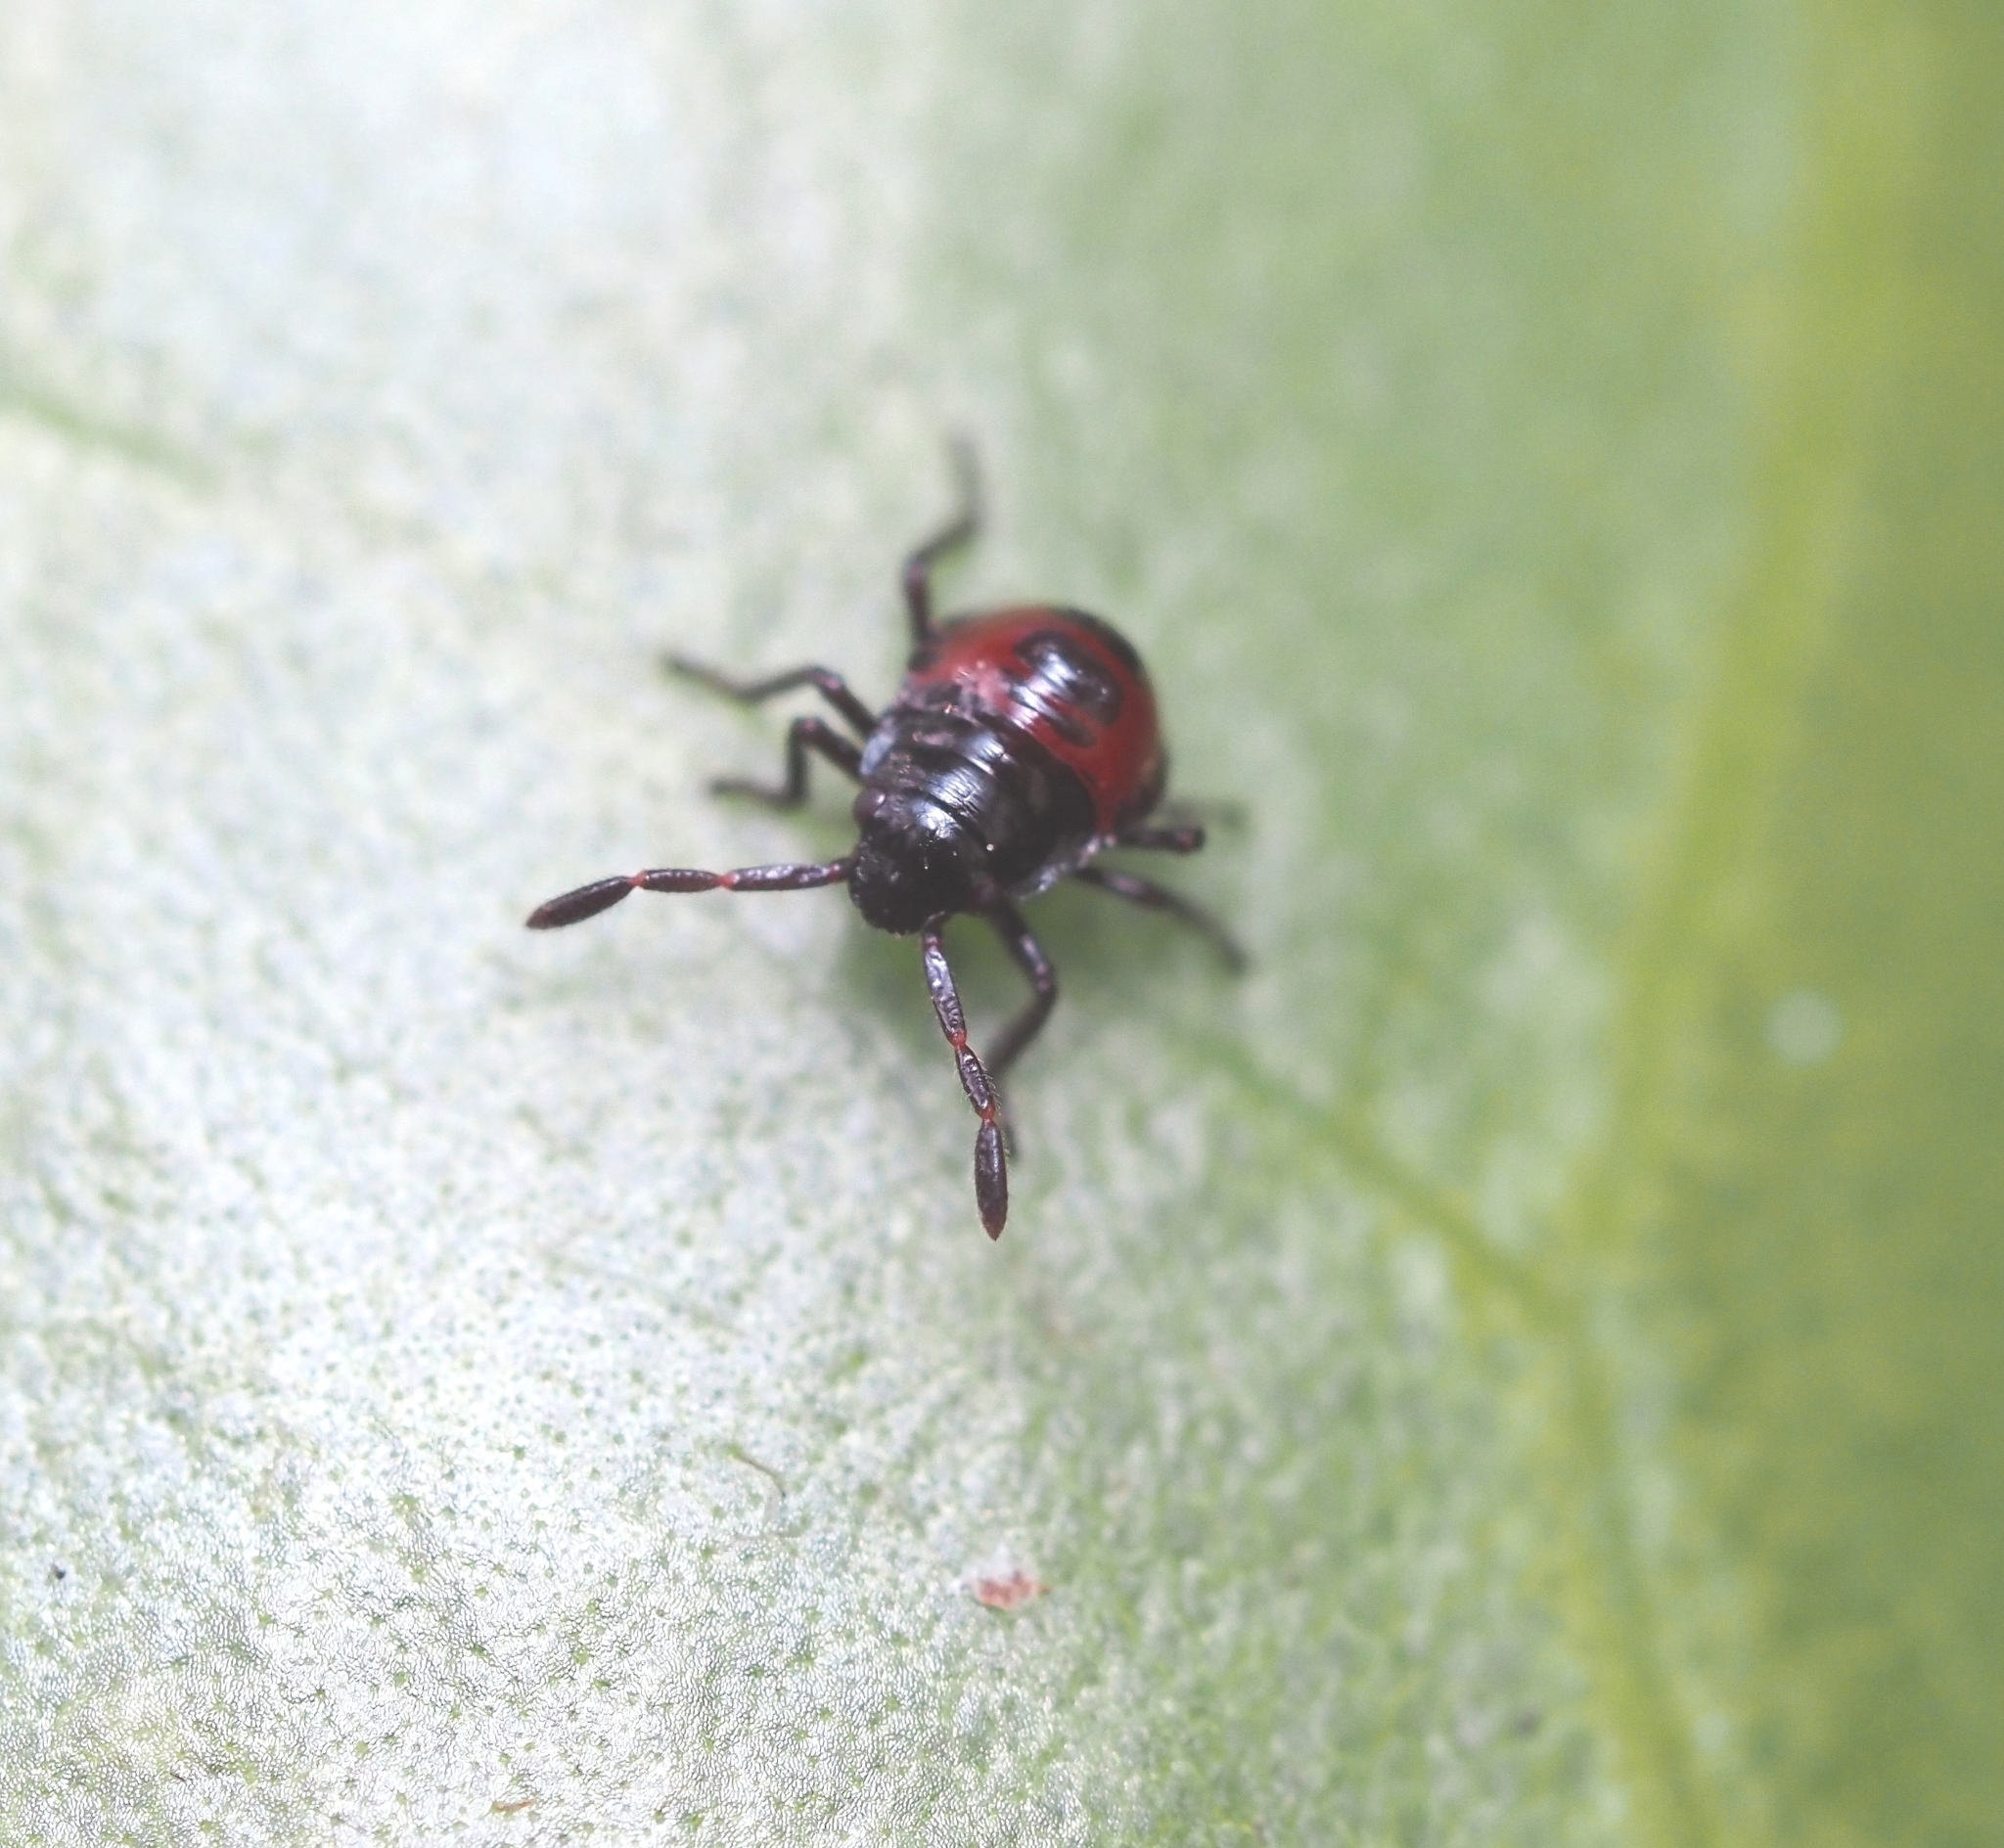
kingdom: Animalia
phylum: Arthropoda
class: Insecta
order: Hemiptera
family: Pentatomidae
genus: Oechalia
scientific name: Oechalia schellenbergii
